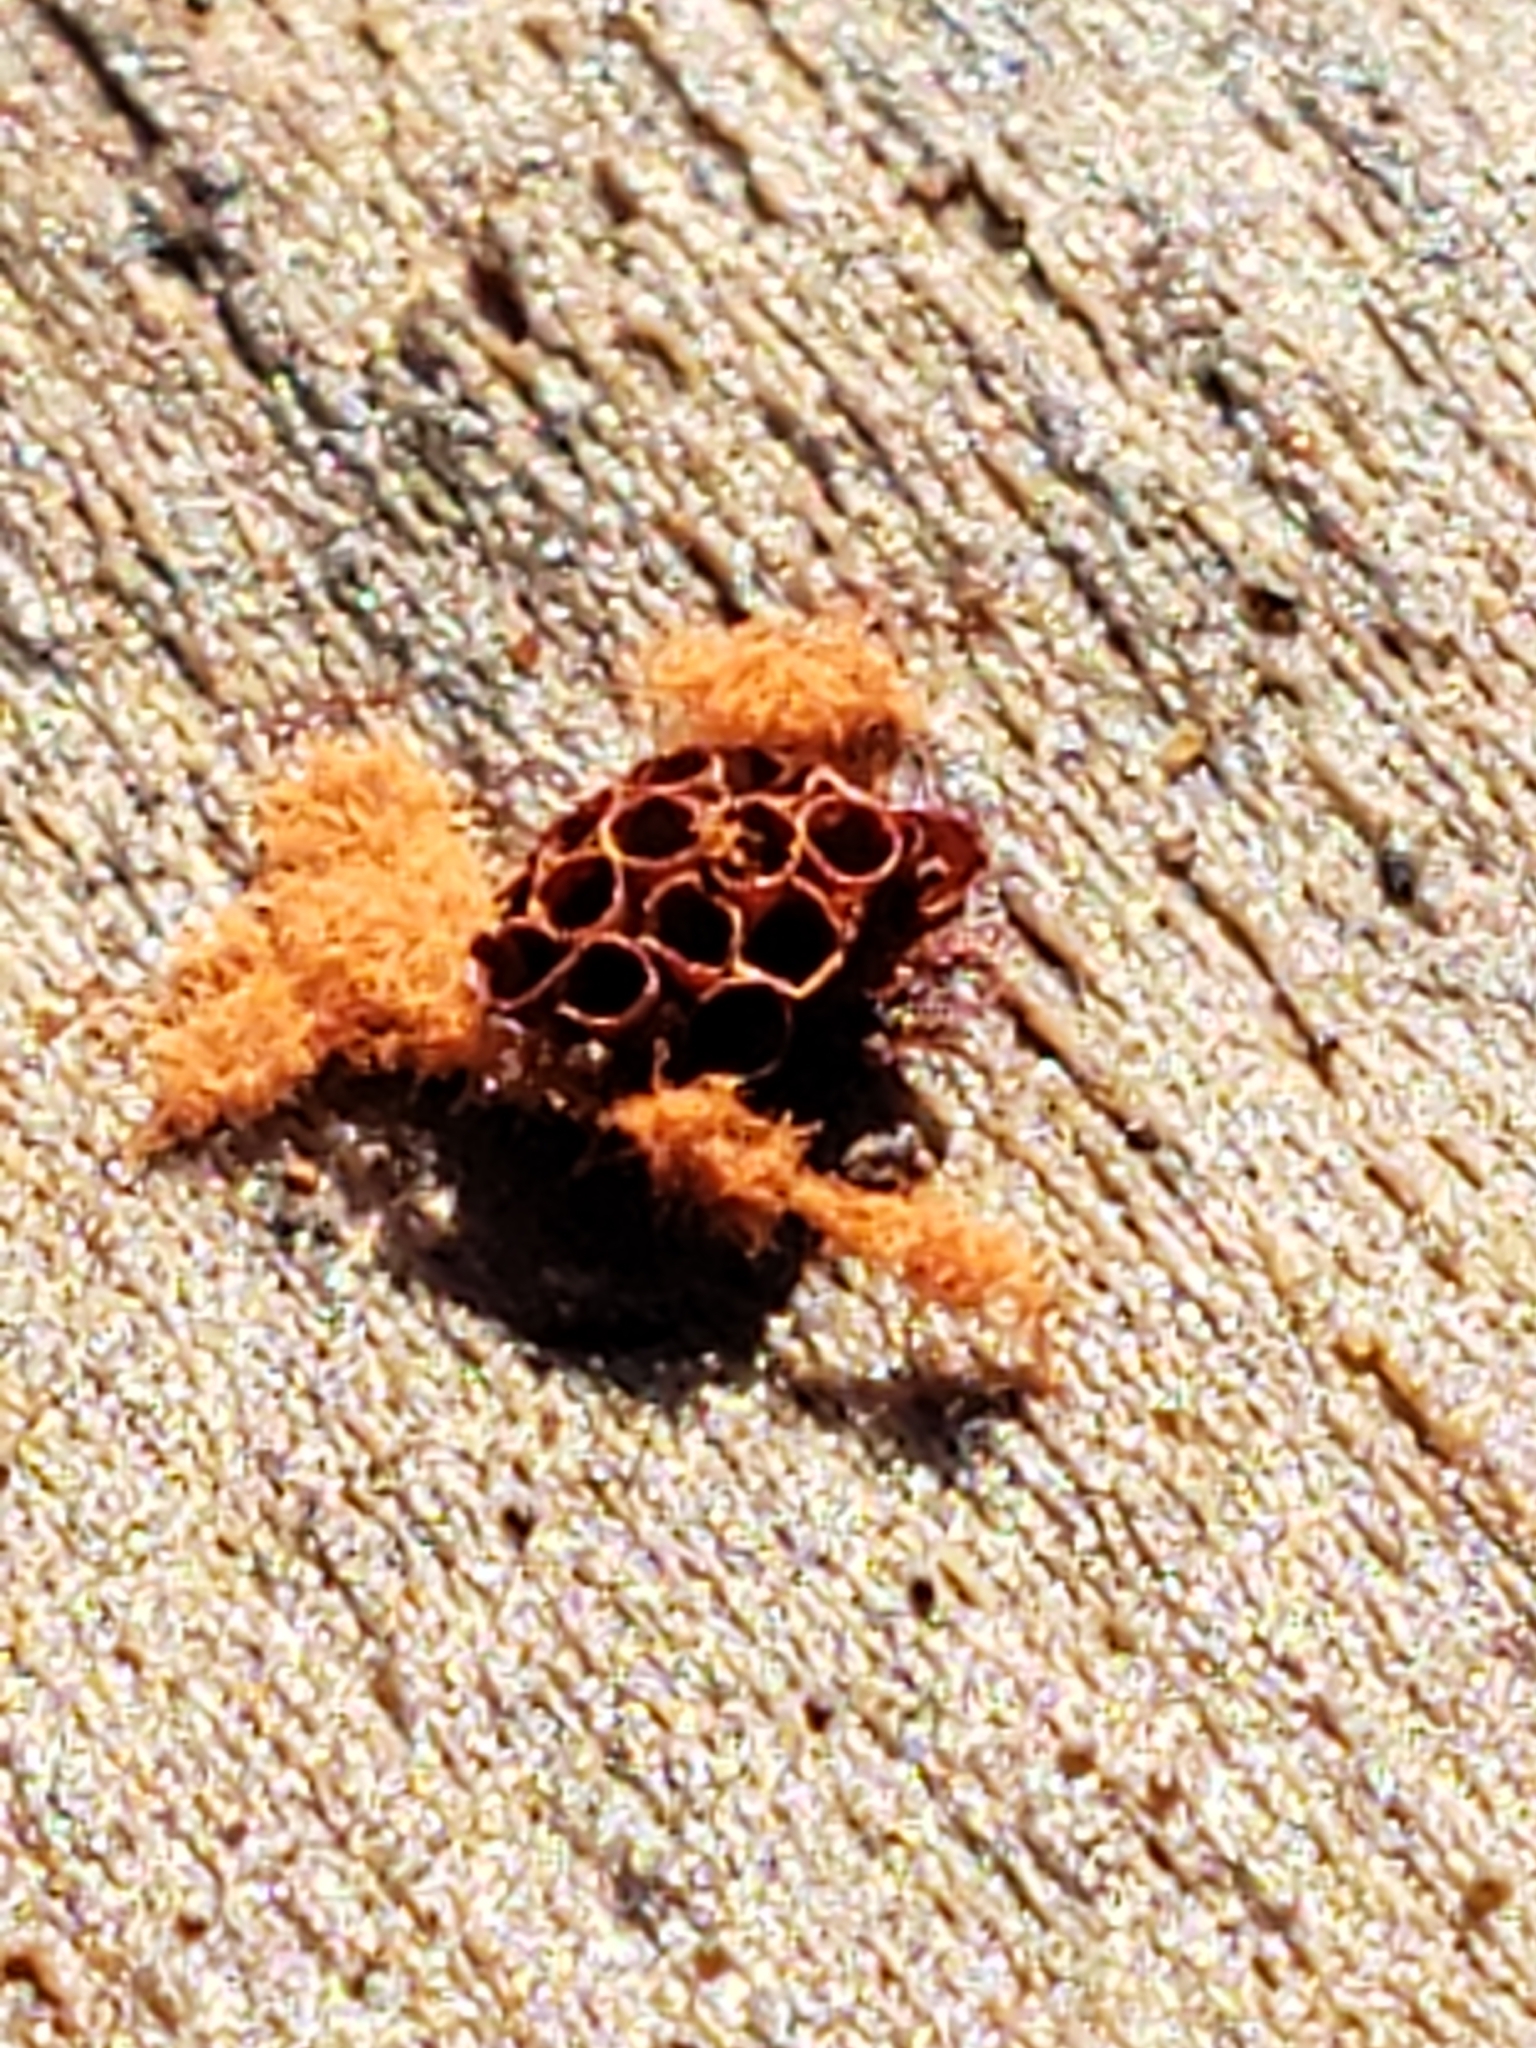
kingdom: Protozoa
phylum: Mycetozoa
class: Myxomycetes
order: Trichiales
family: Trichiaceae
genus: Metatrichia
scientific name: Metatrichia vesparia
